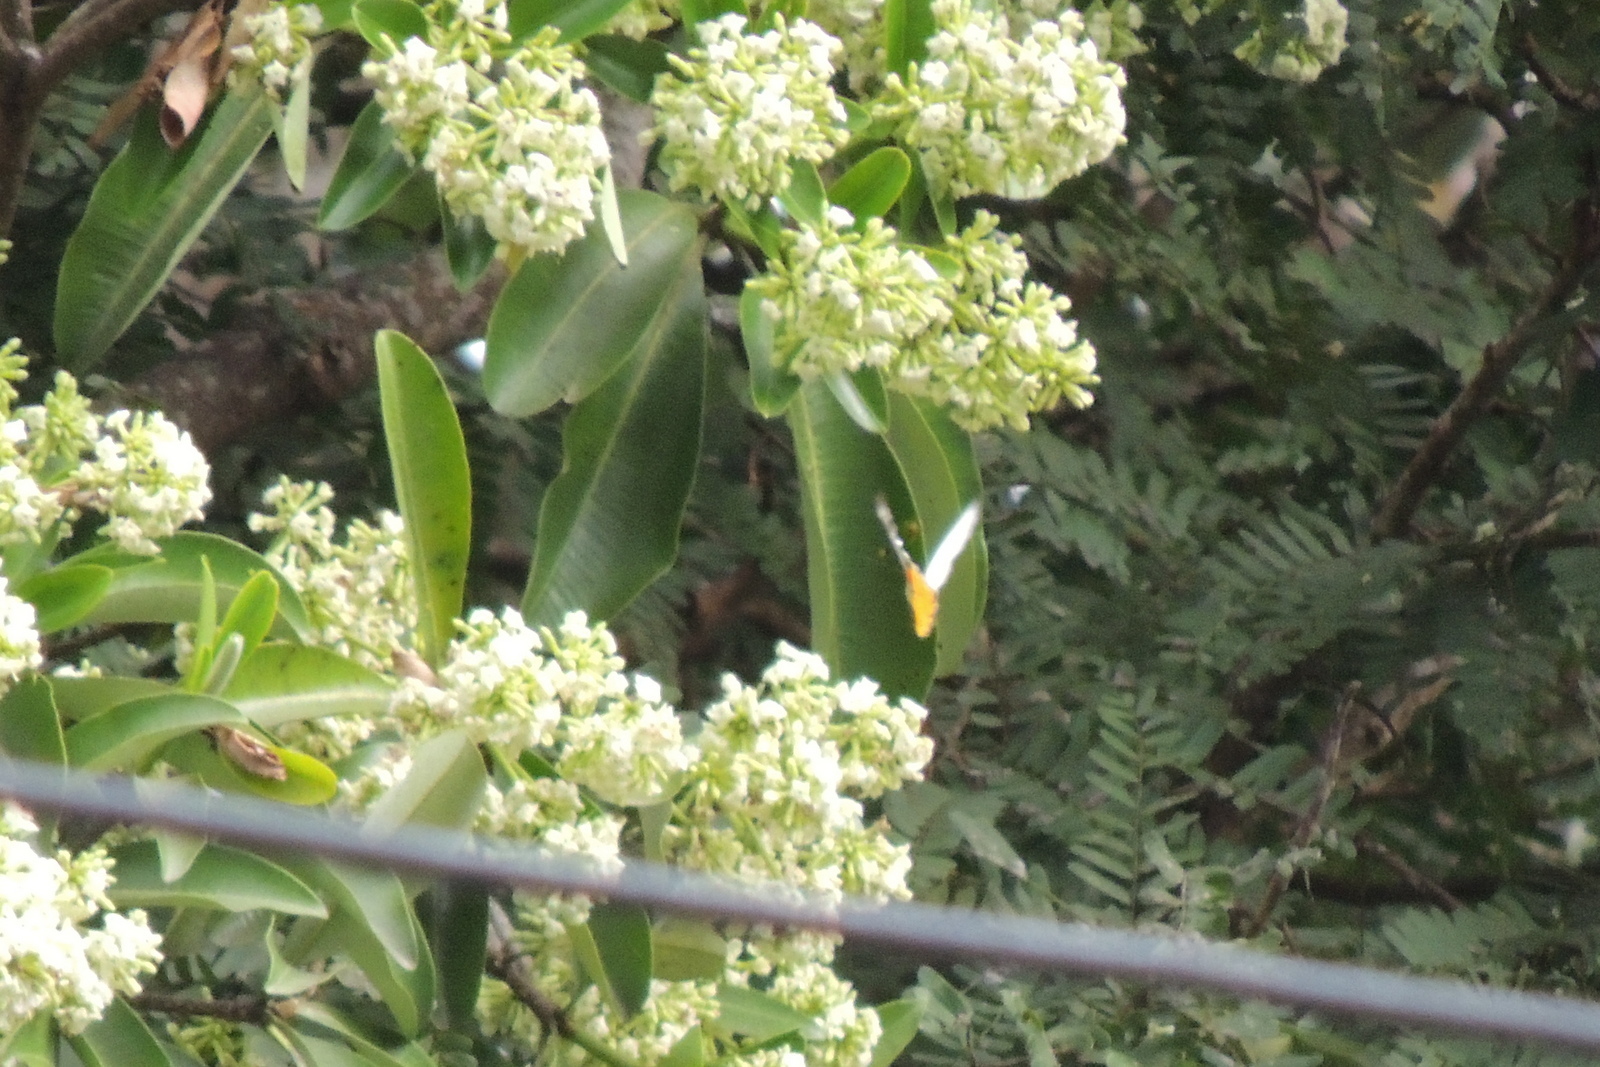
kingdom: Animalia
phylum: Arthropoda
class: Insecta
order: Lepidoptera
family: Pieridae
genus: Delias
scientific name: Delias descombesi
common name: Red-spot jezebel
